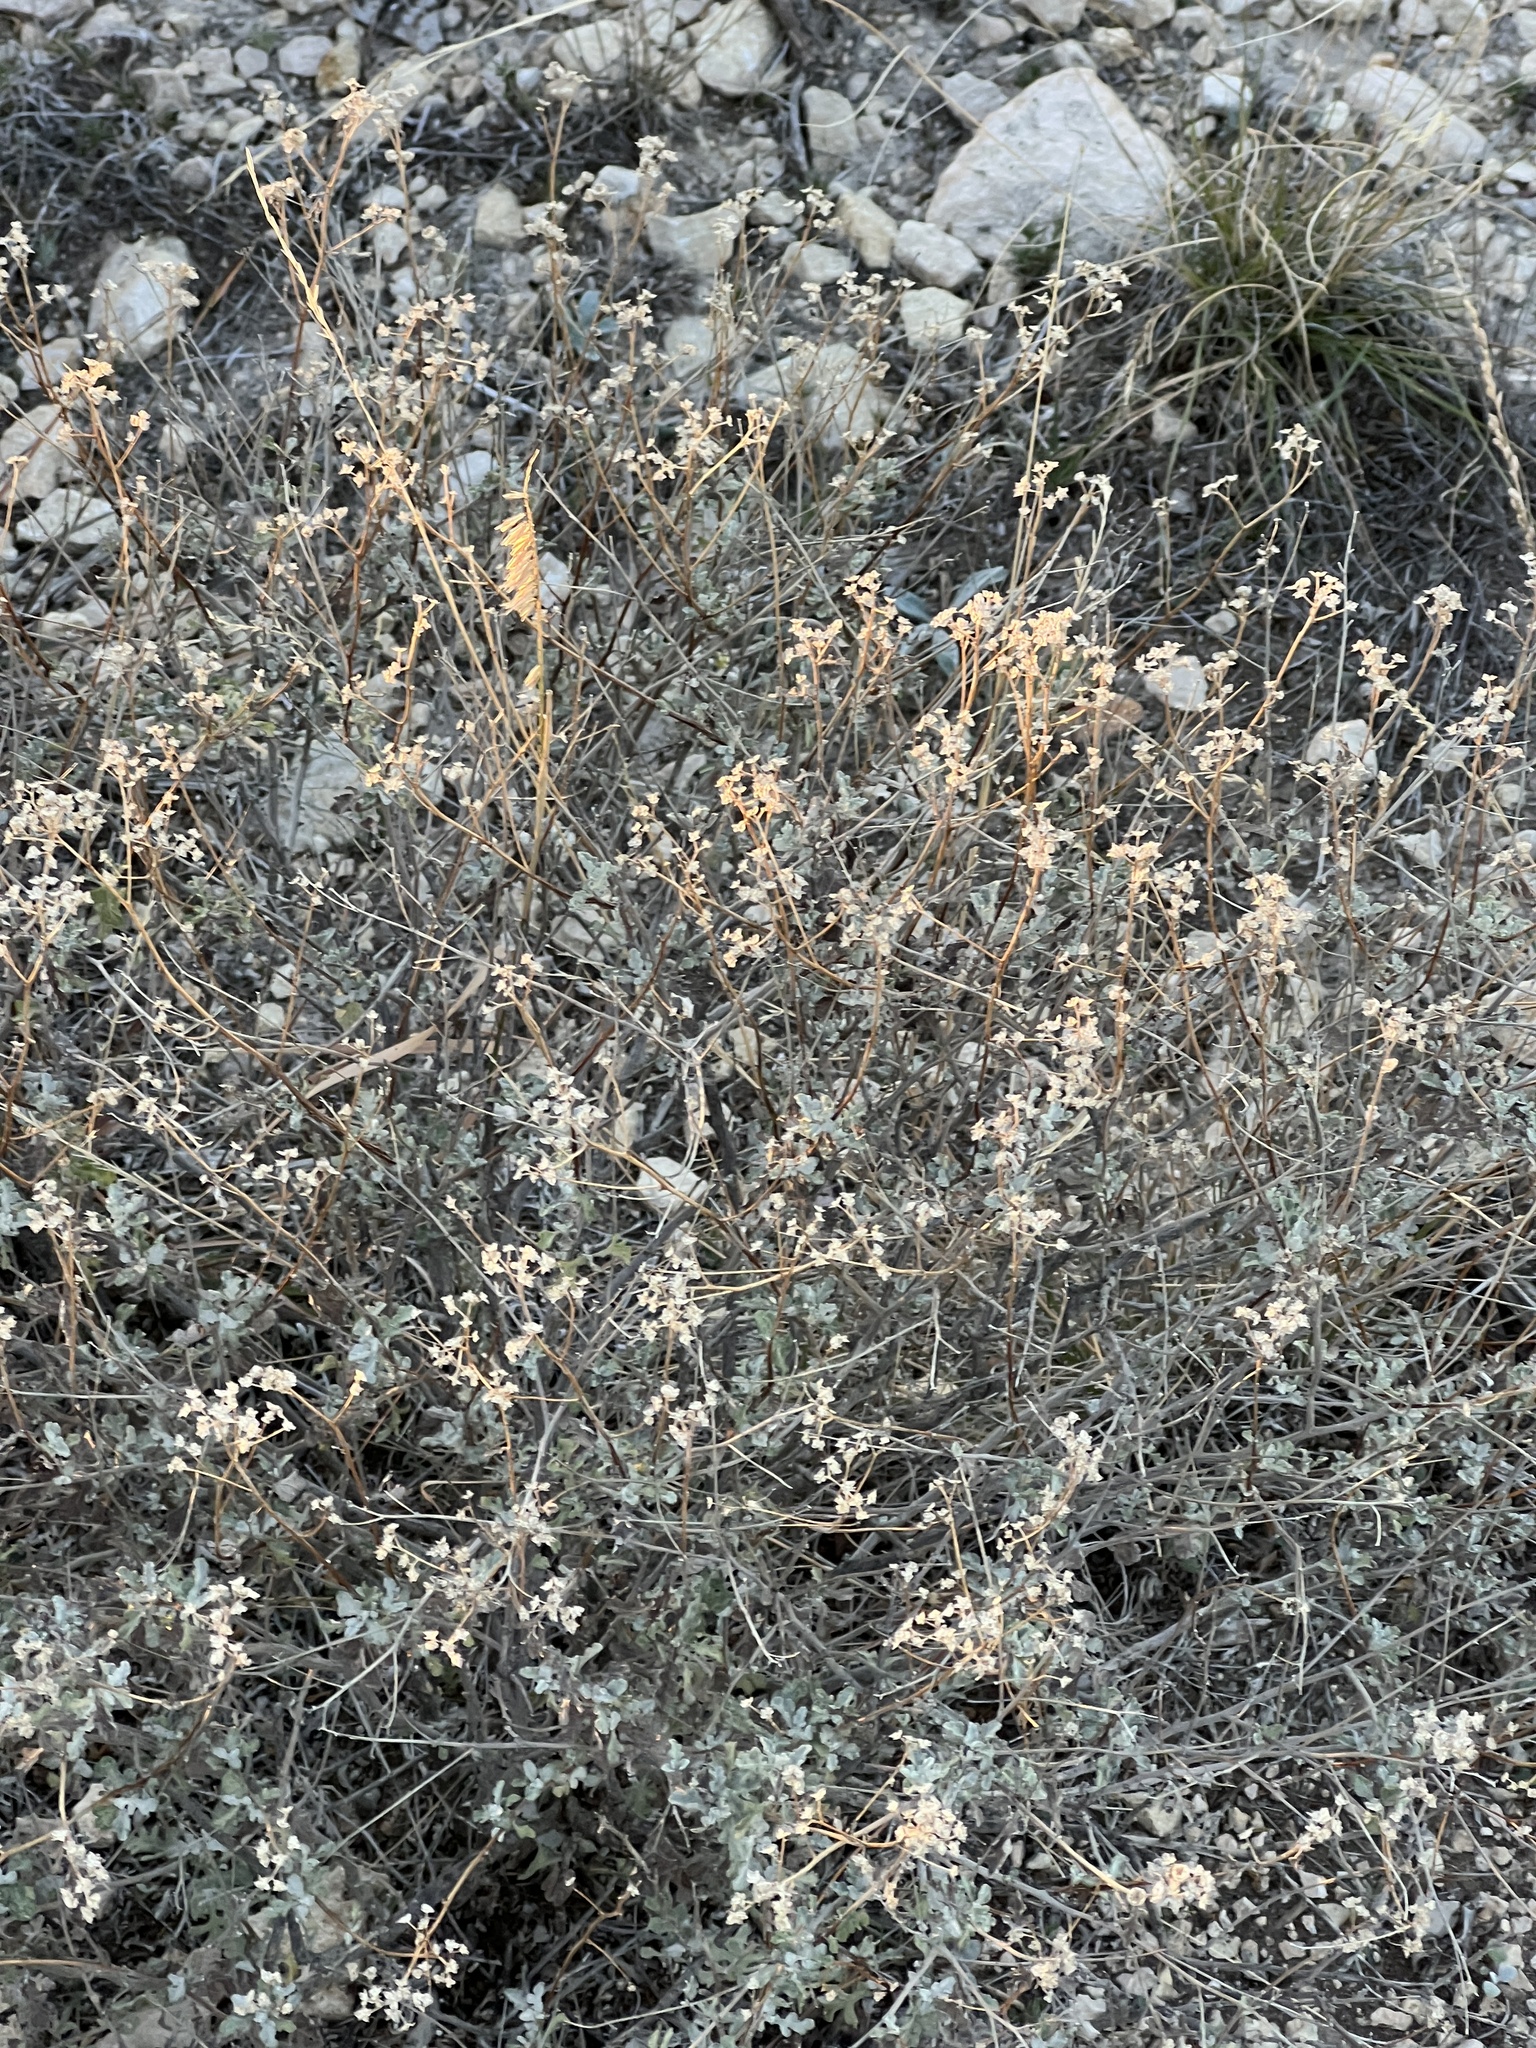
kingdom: Plantae
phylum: Tracheophyta
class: Magnoliopsida
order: Asterales
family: Asteraceae
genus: Parthenium
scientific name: Parthenium incanum
